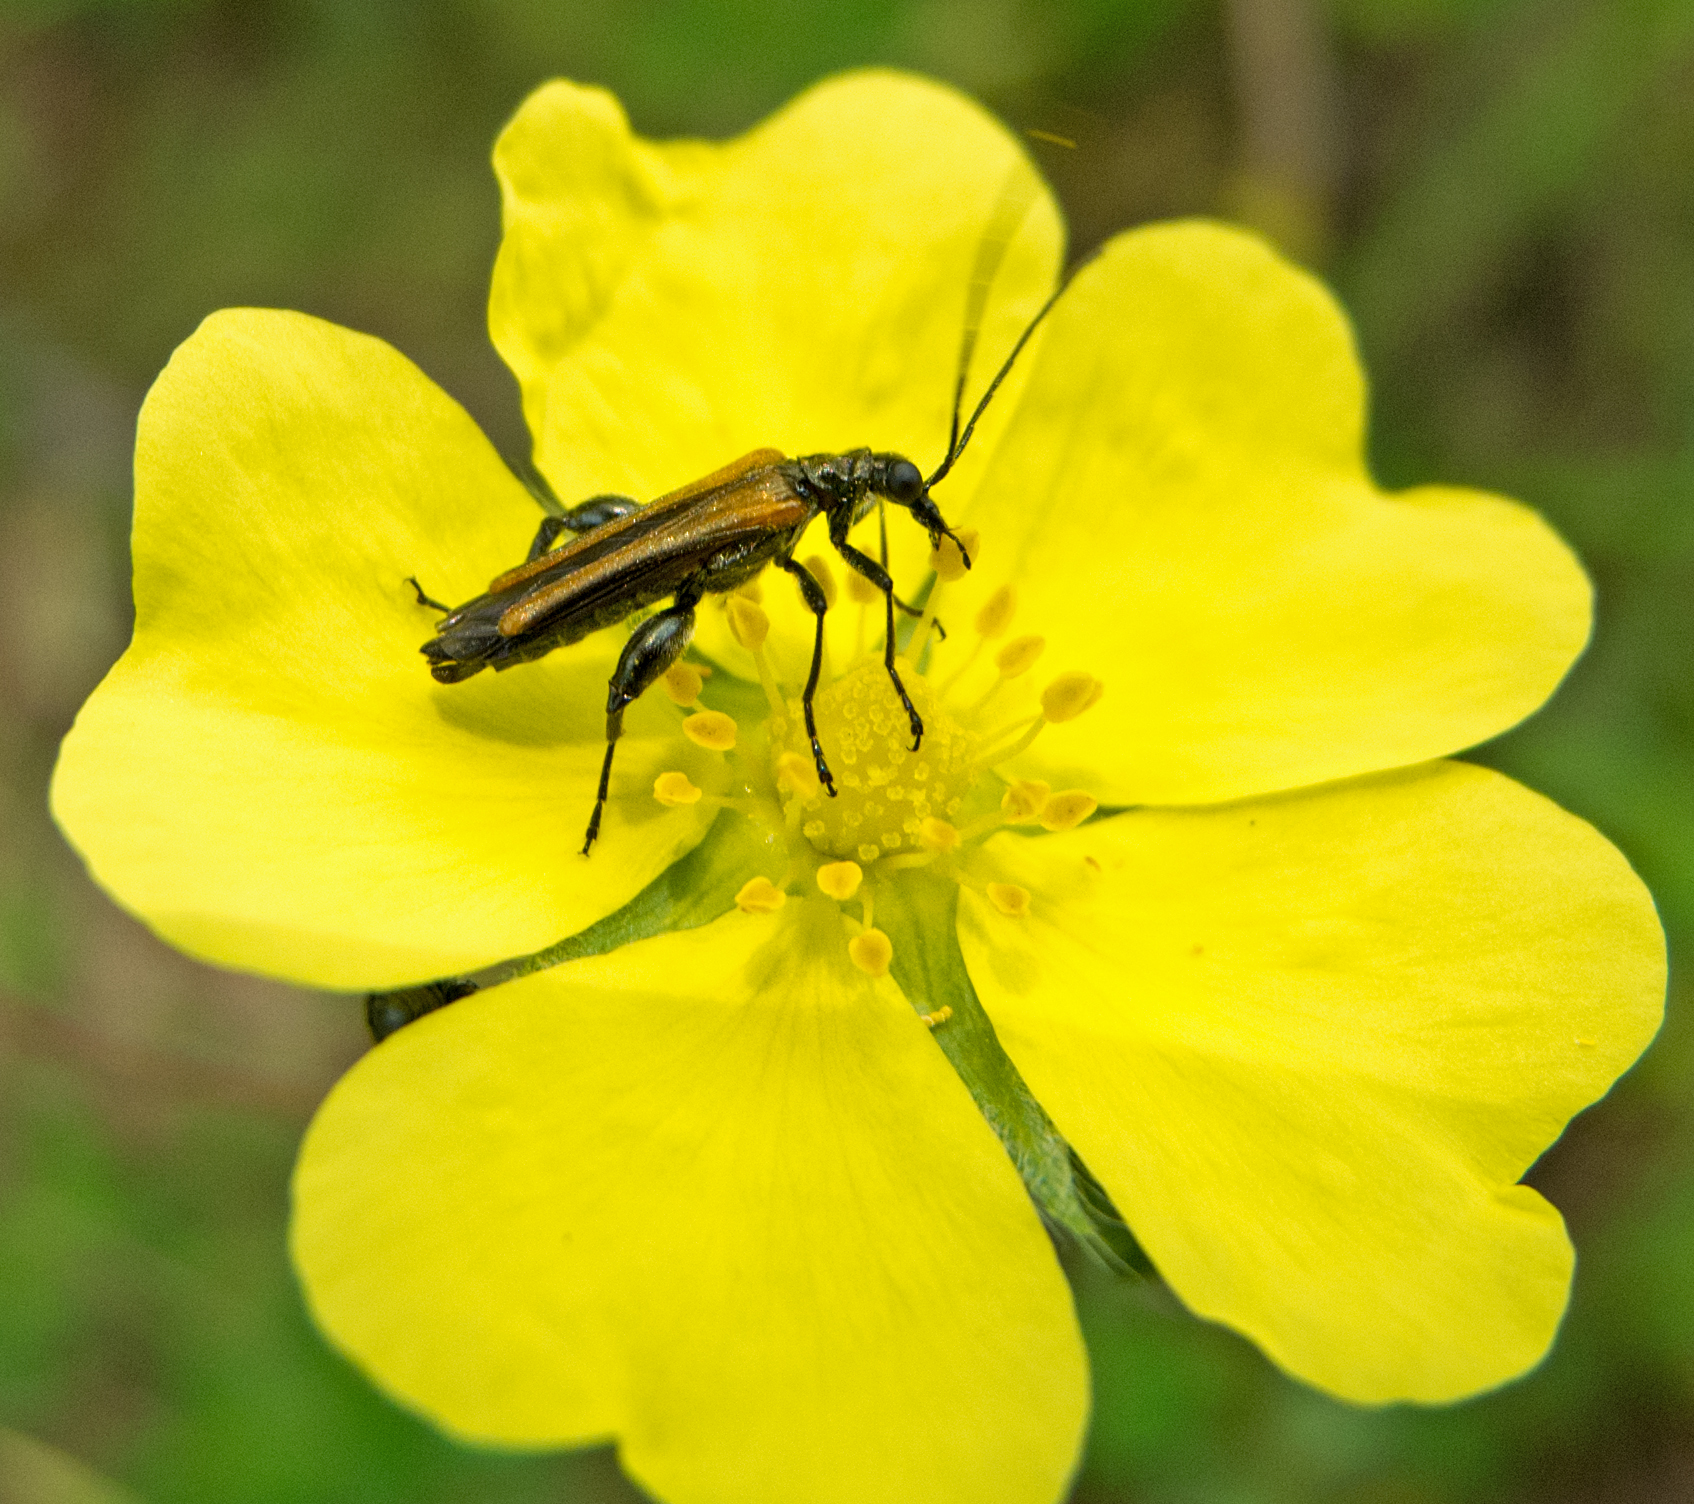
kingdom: Animalia
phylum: Arthropoda
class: Insecta
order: Coleoptera
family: Oedemeridae
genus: Oedemera
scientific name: Oedemera femorata
